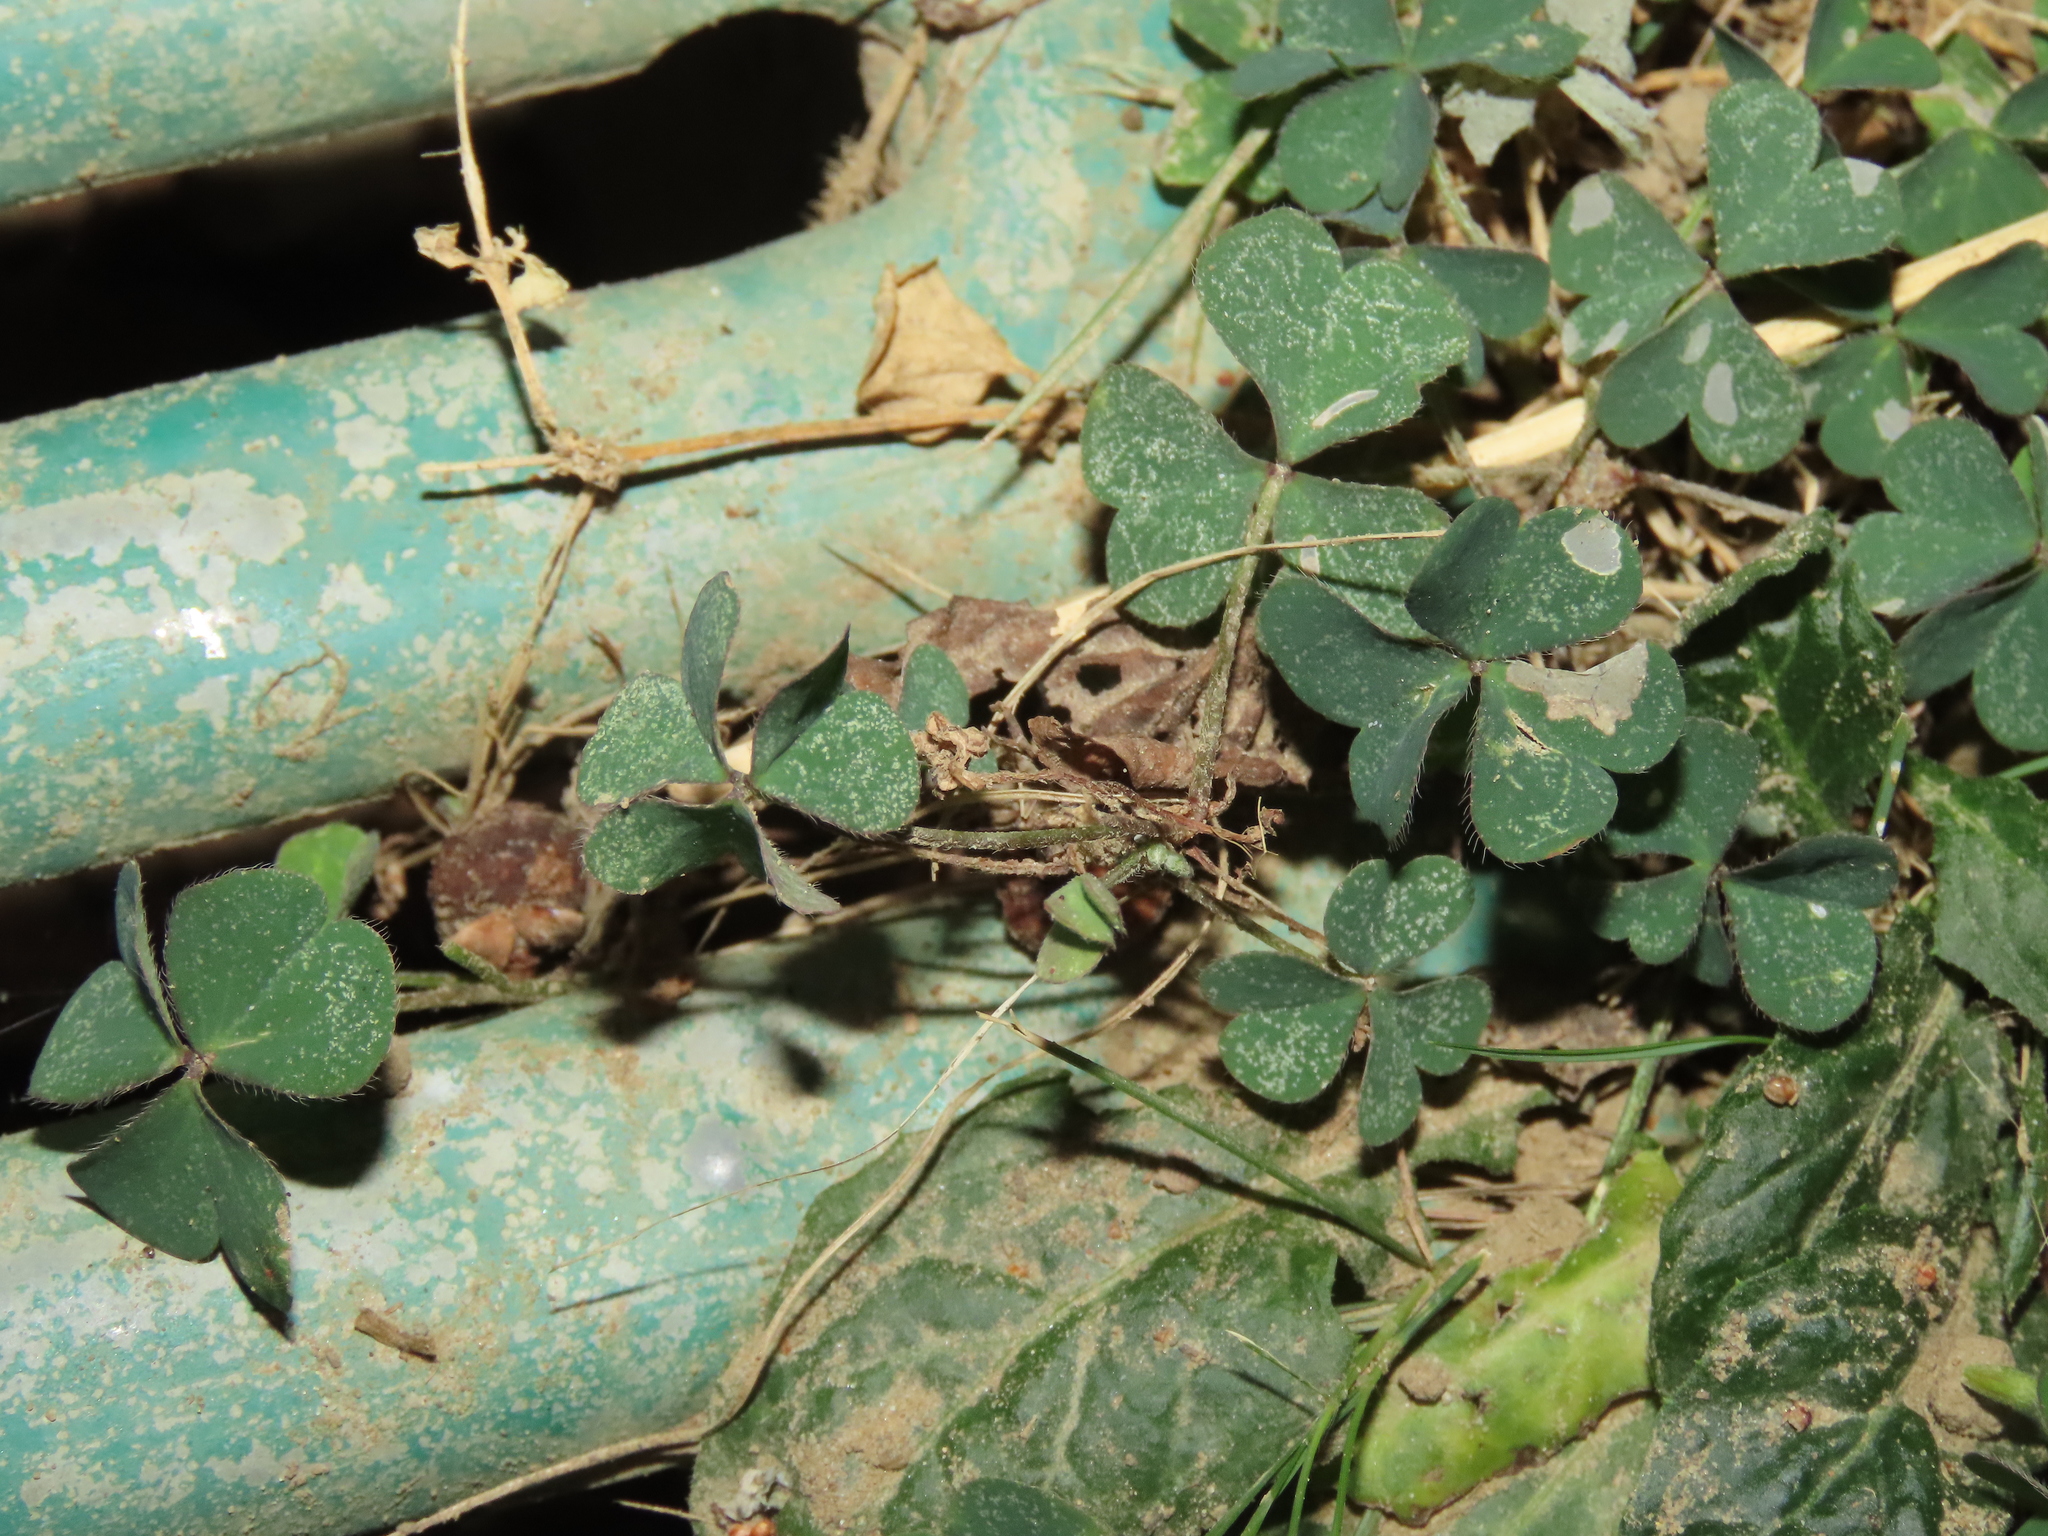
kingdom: Plantae
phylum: Tracheophyta
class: Magnoliopsida
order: Oxalidales
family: Oxalidaceae
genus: Oxalis
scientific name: Oxalis corniculata
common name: Procumbent yellow-sorrel
